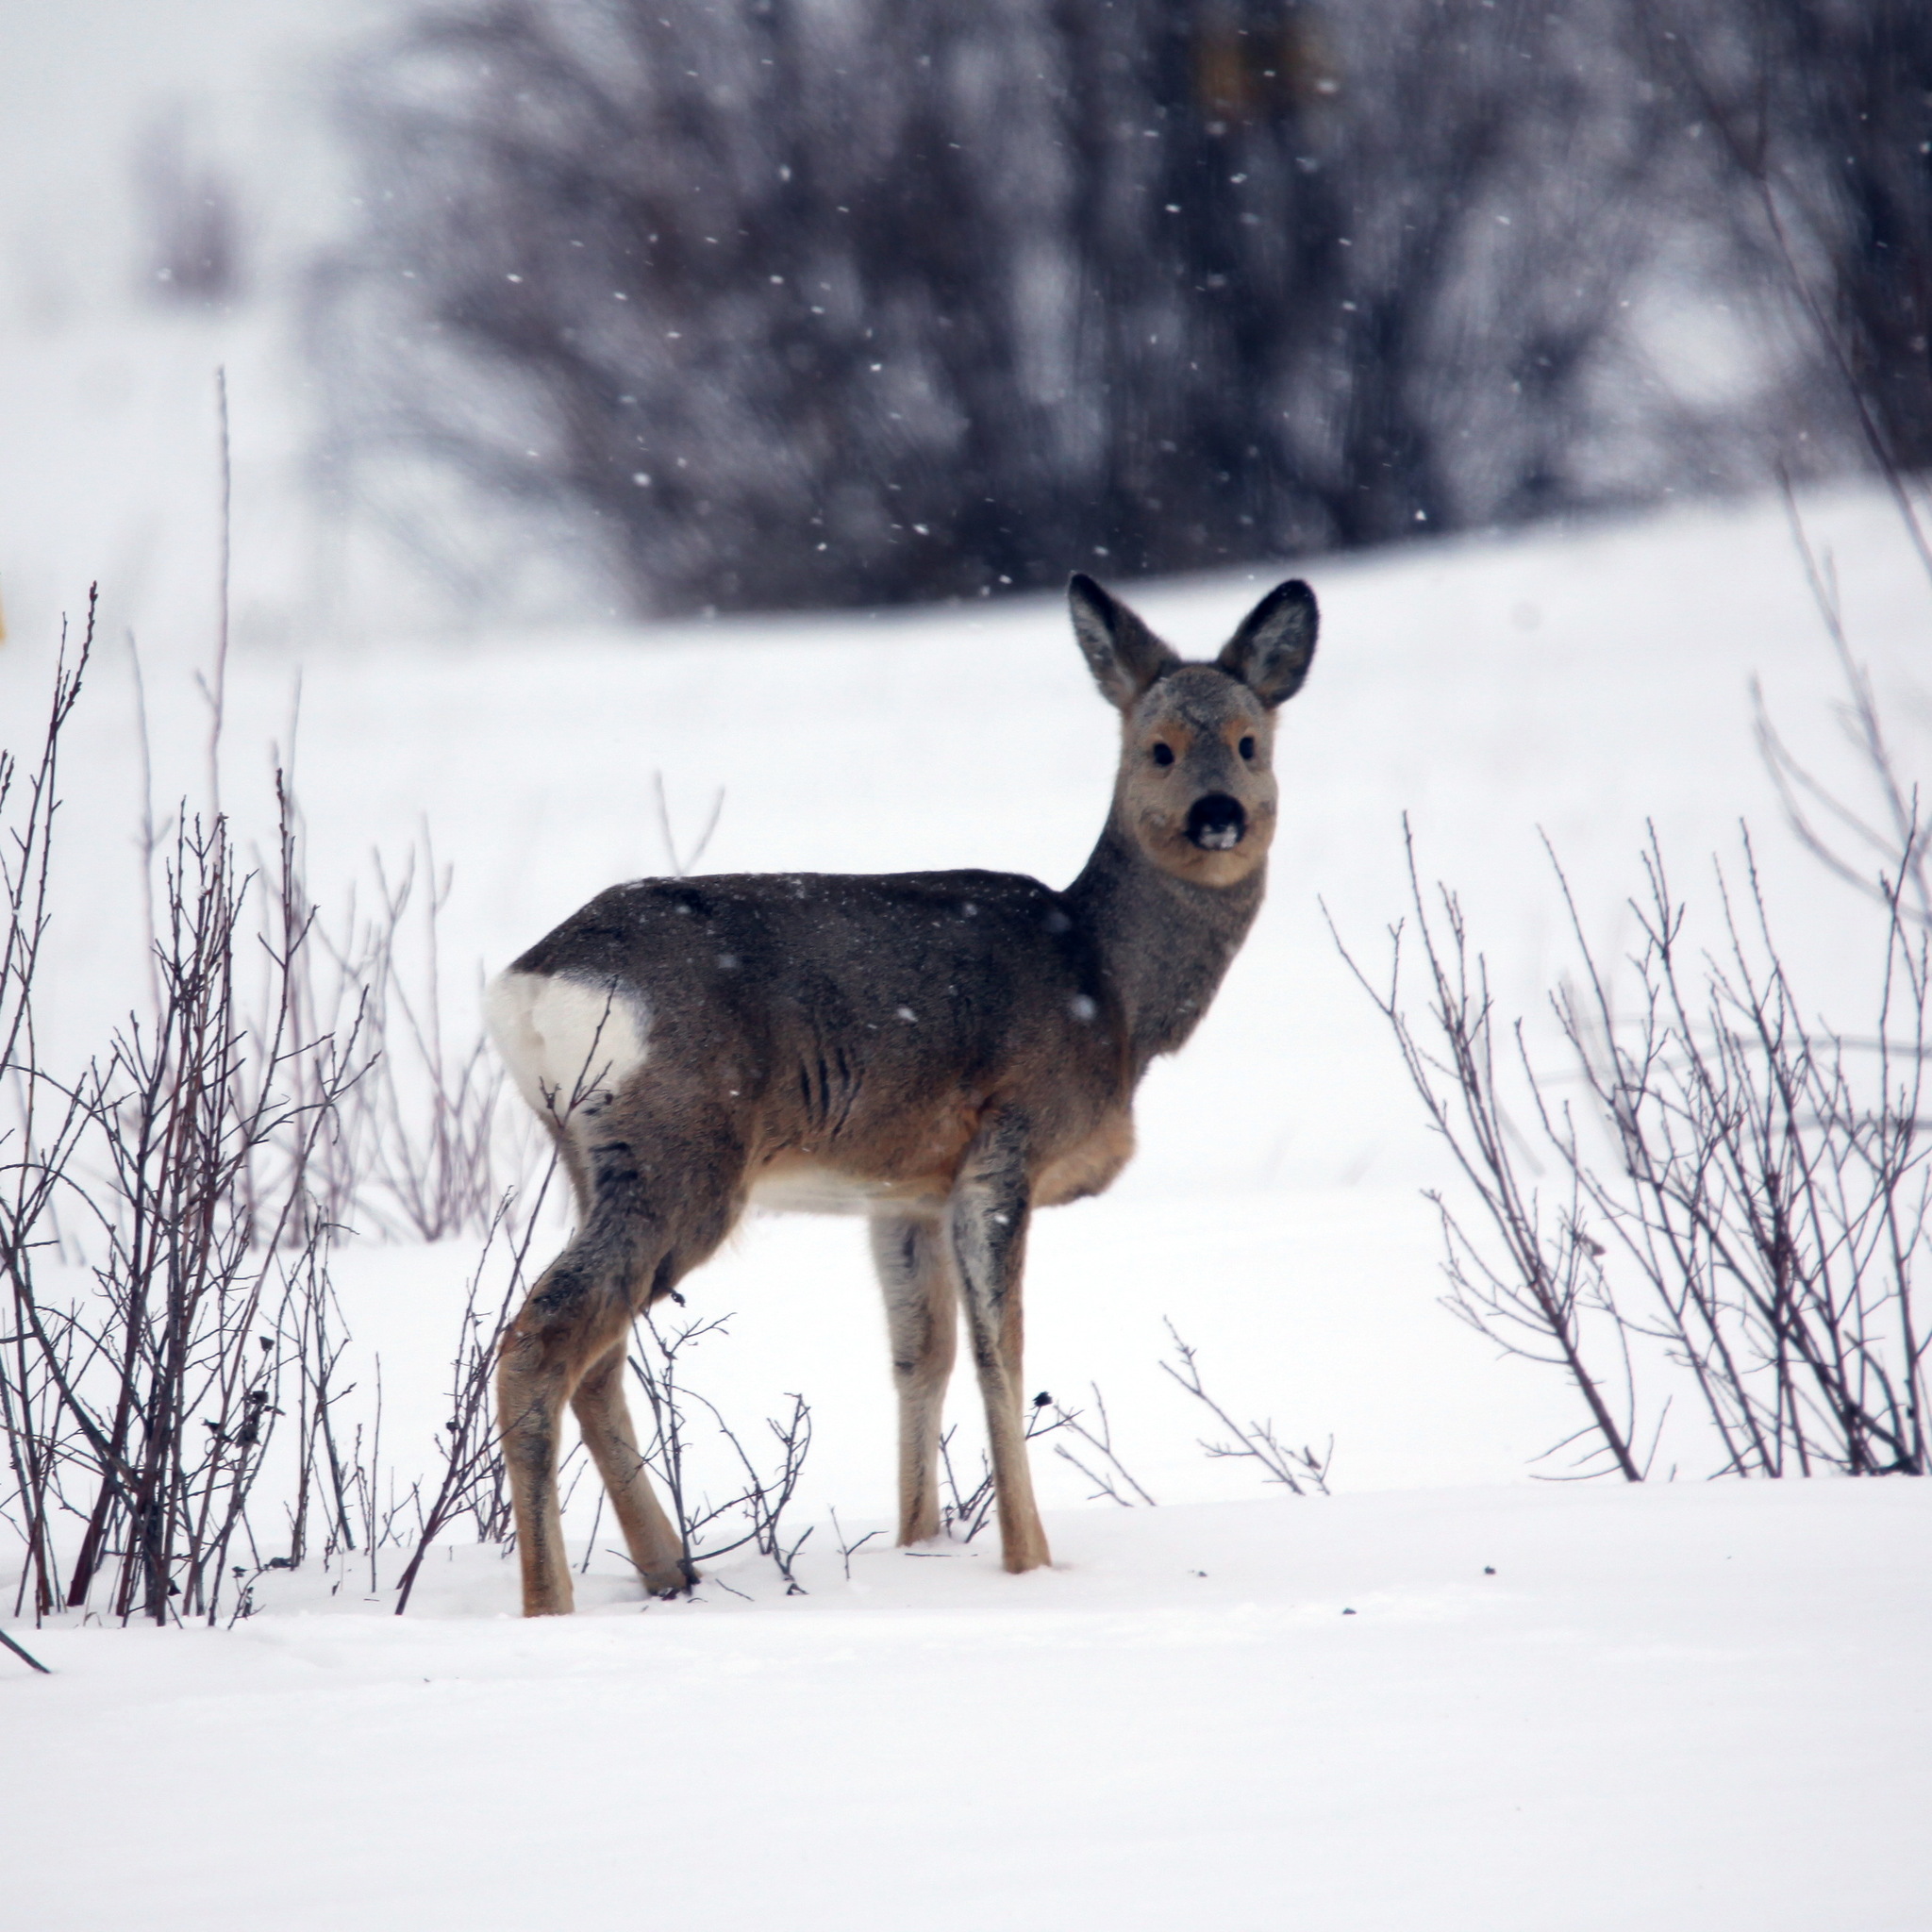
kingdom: Animalia
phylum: Chordata
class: Mammalia
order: Artiodactyla
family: Cervidae
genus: Capreolus
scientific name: Capreolus pygargus
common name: Siberian roe
